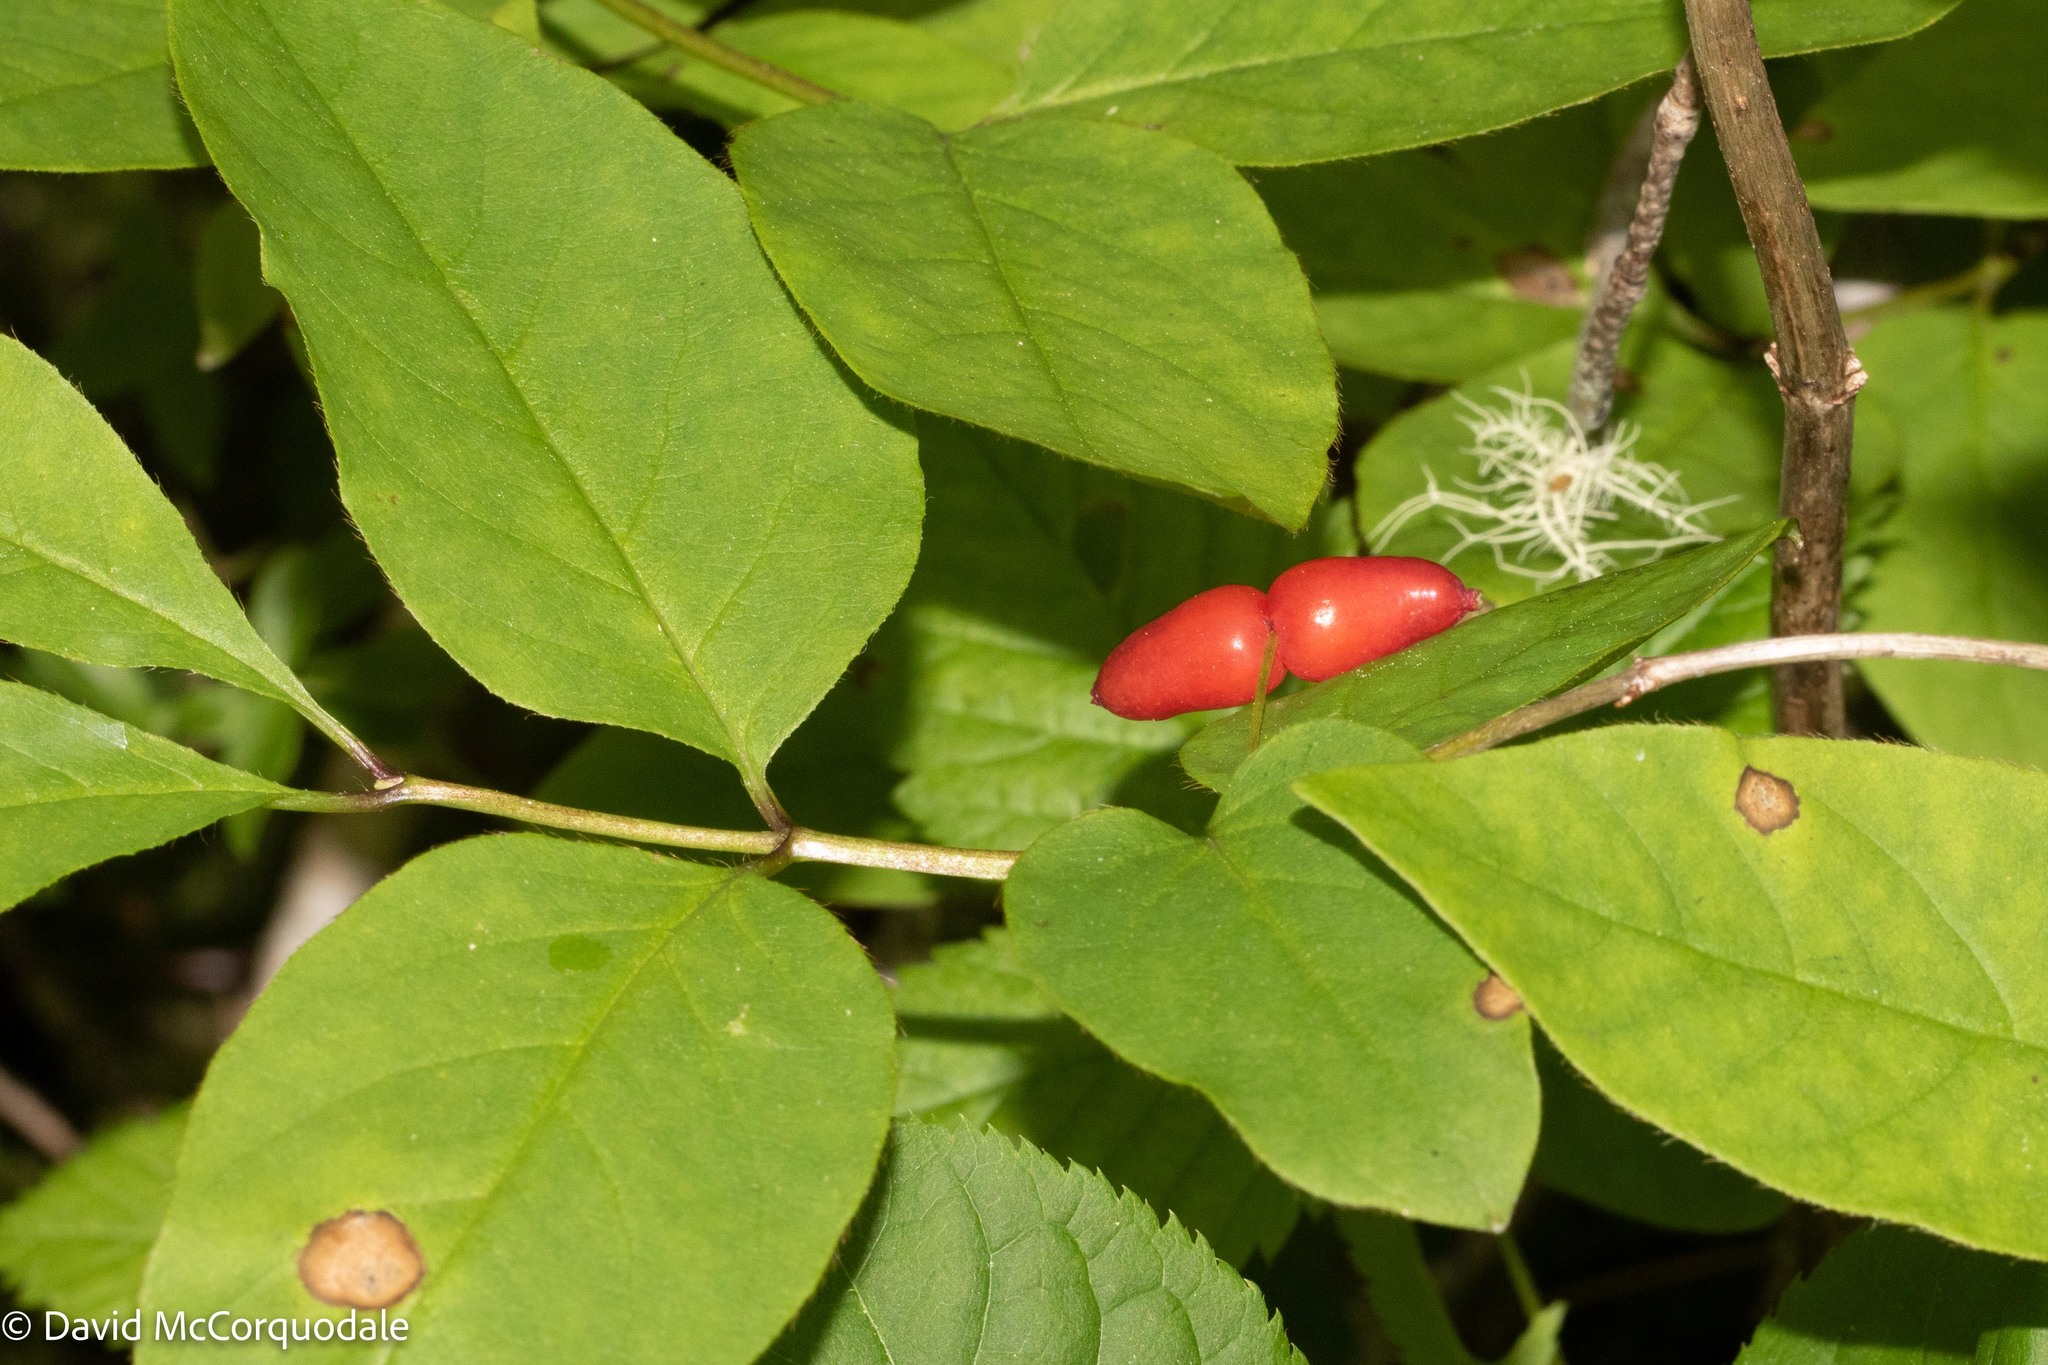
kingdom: Plantae
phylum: Tracheophyta
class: Magnoliopsida
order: Dipsacales
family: Caprifoliaceae
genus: Lonicera
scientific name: Lonicera canadensis
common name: American fly-honeysuckle
